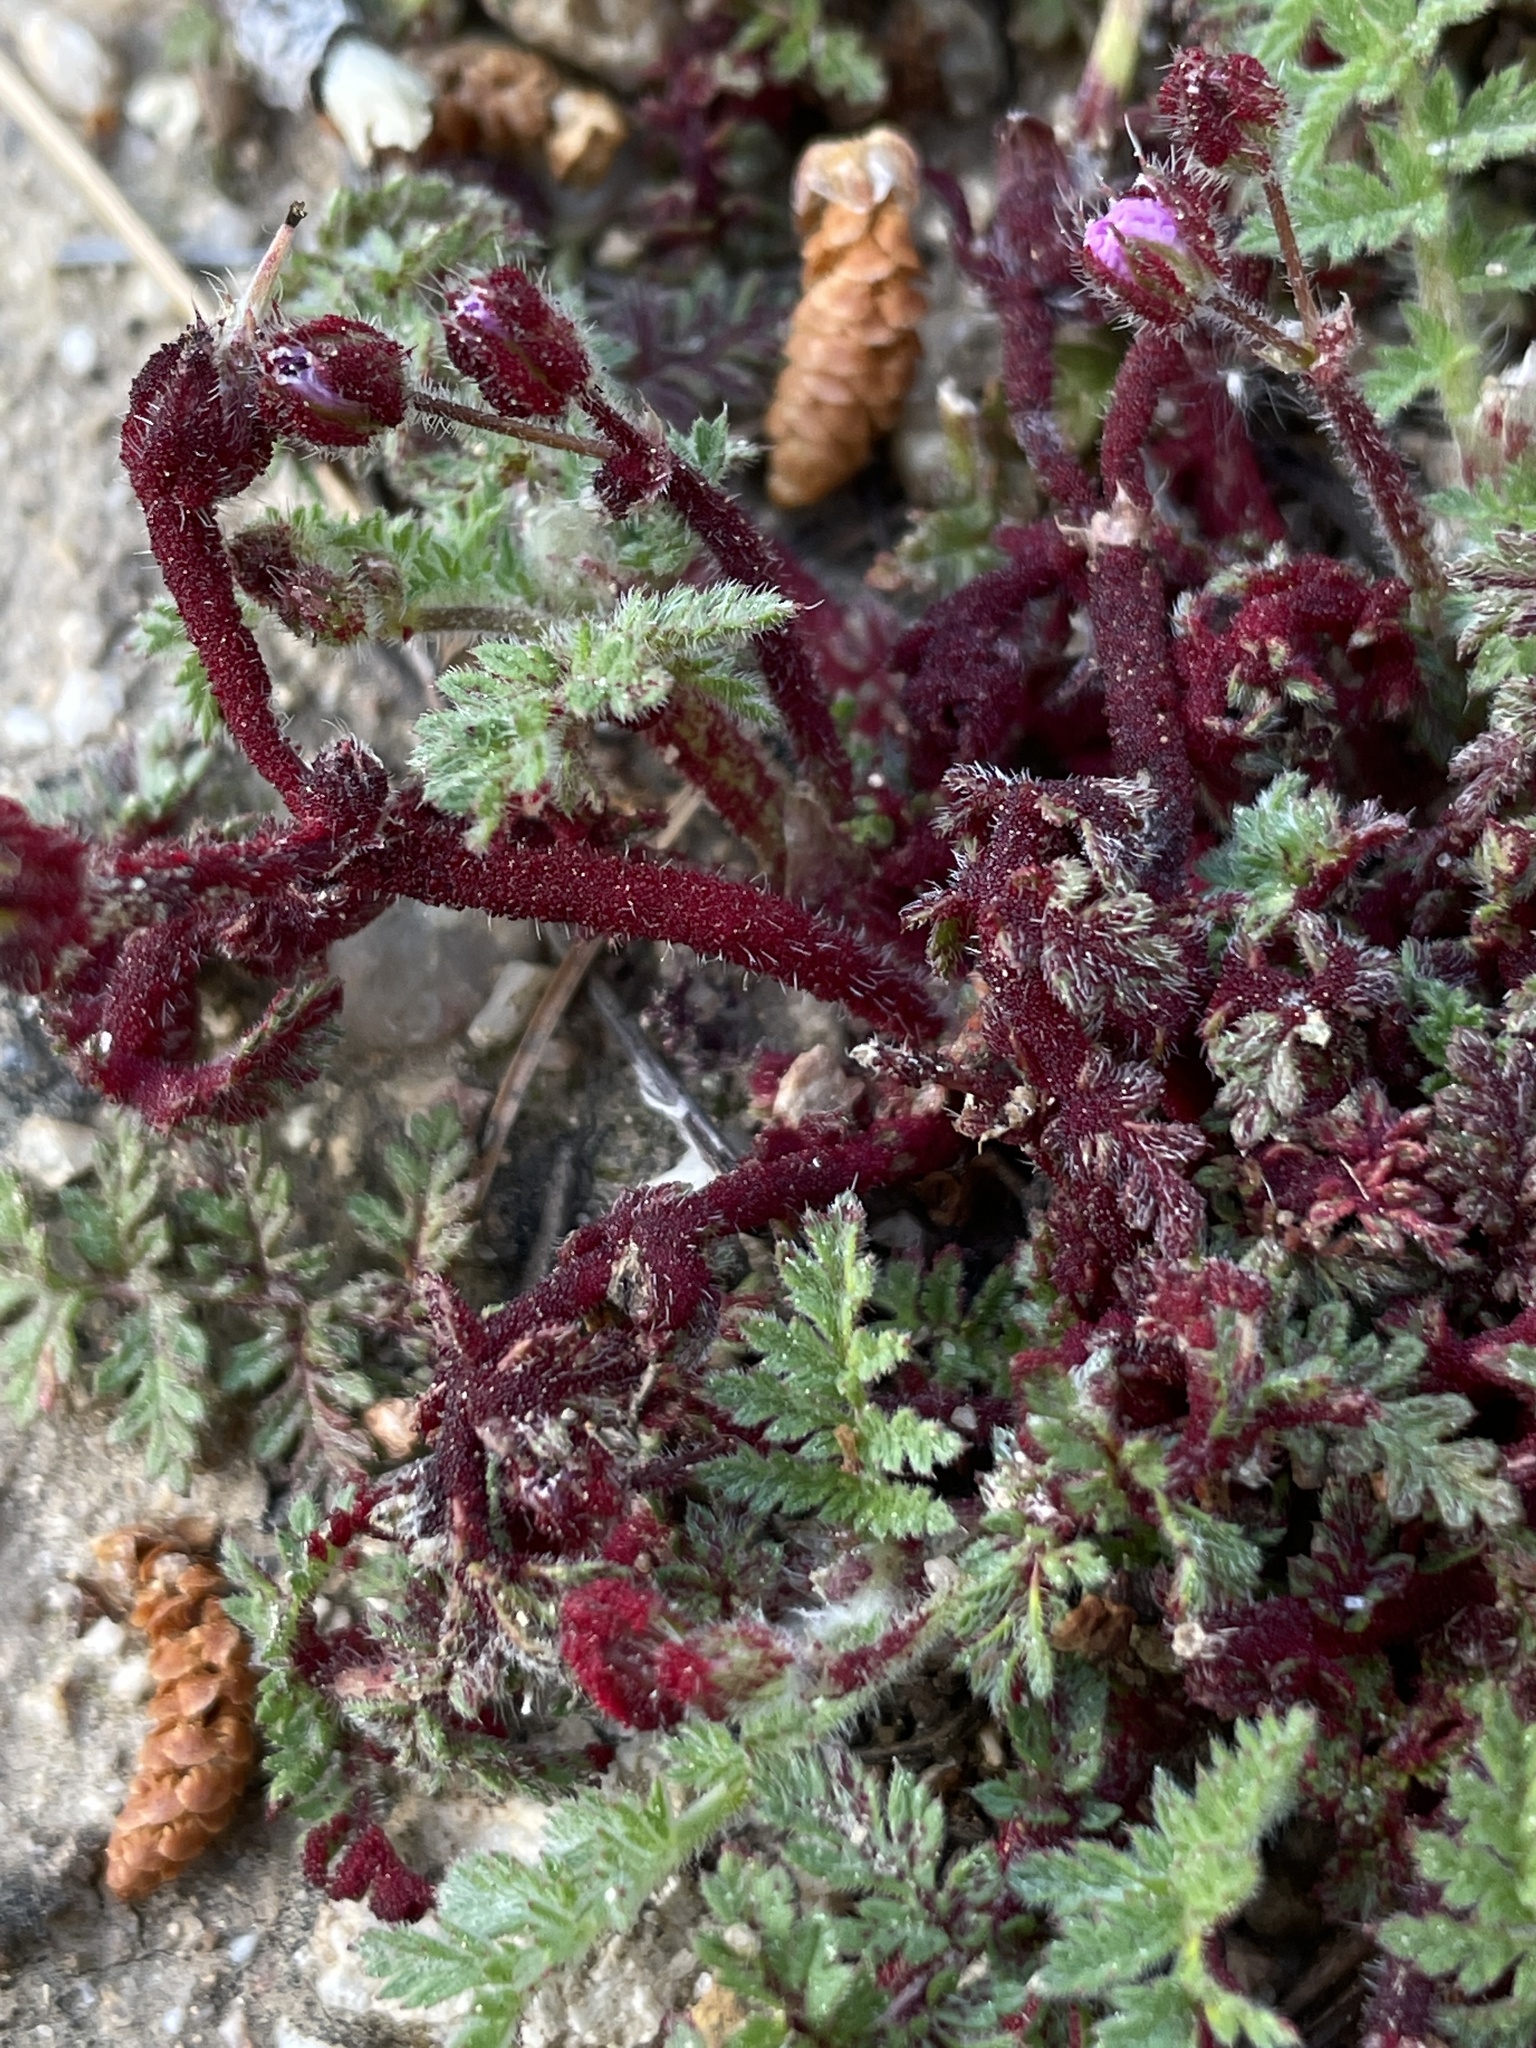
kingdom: Fungi
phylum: Chytridiomycota
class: Chytridiomycetes
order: Chytridiales
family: Synchytriaceae
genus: Synchytrium
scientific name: Synchytrium papillatum
